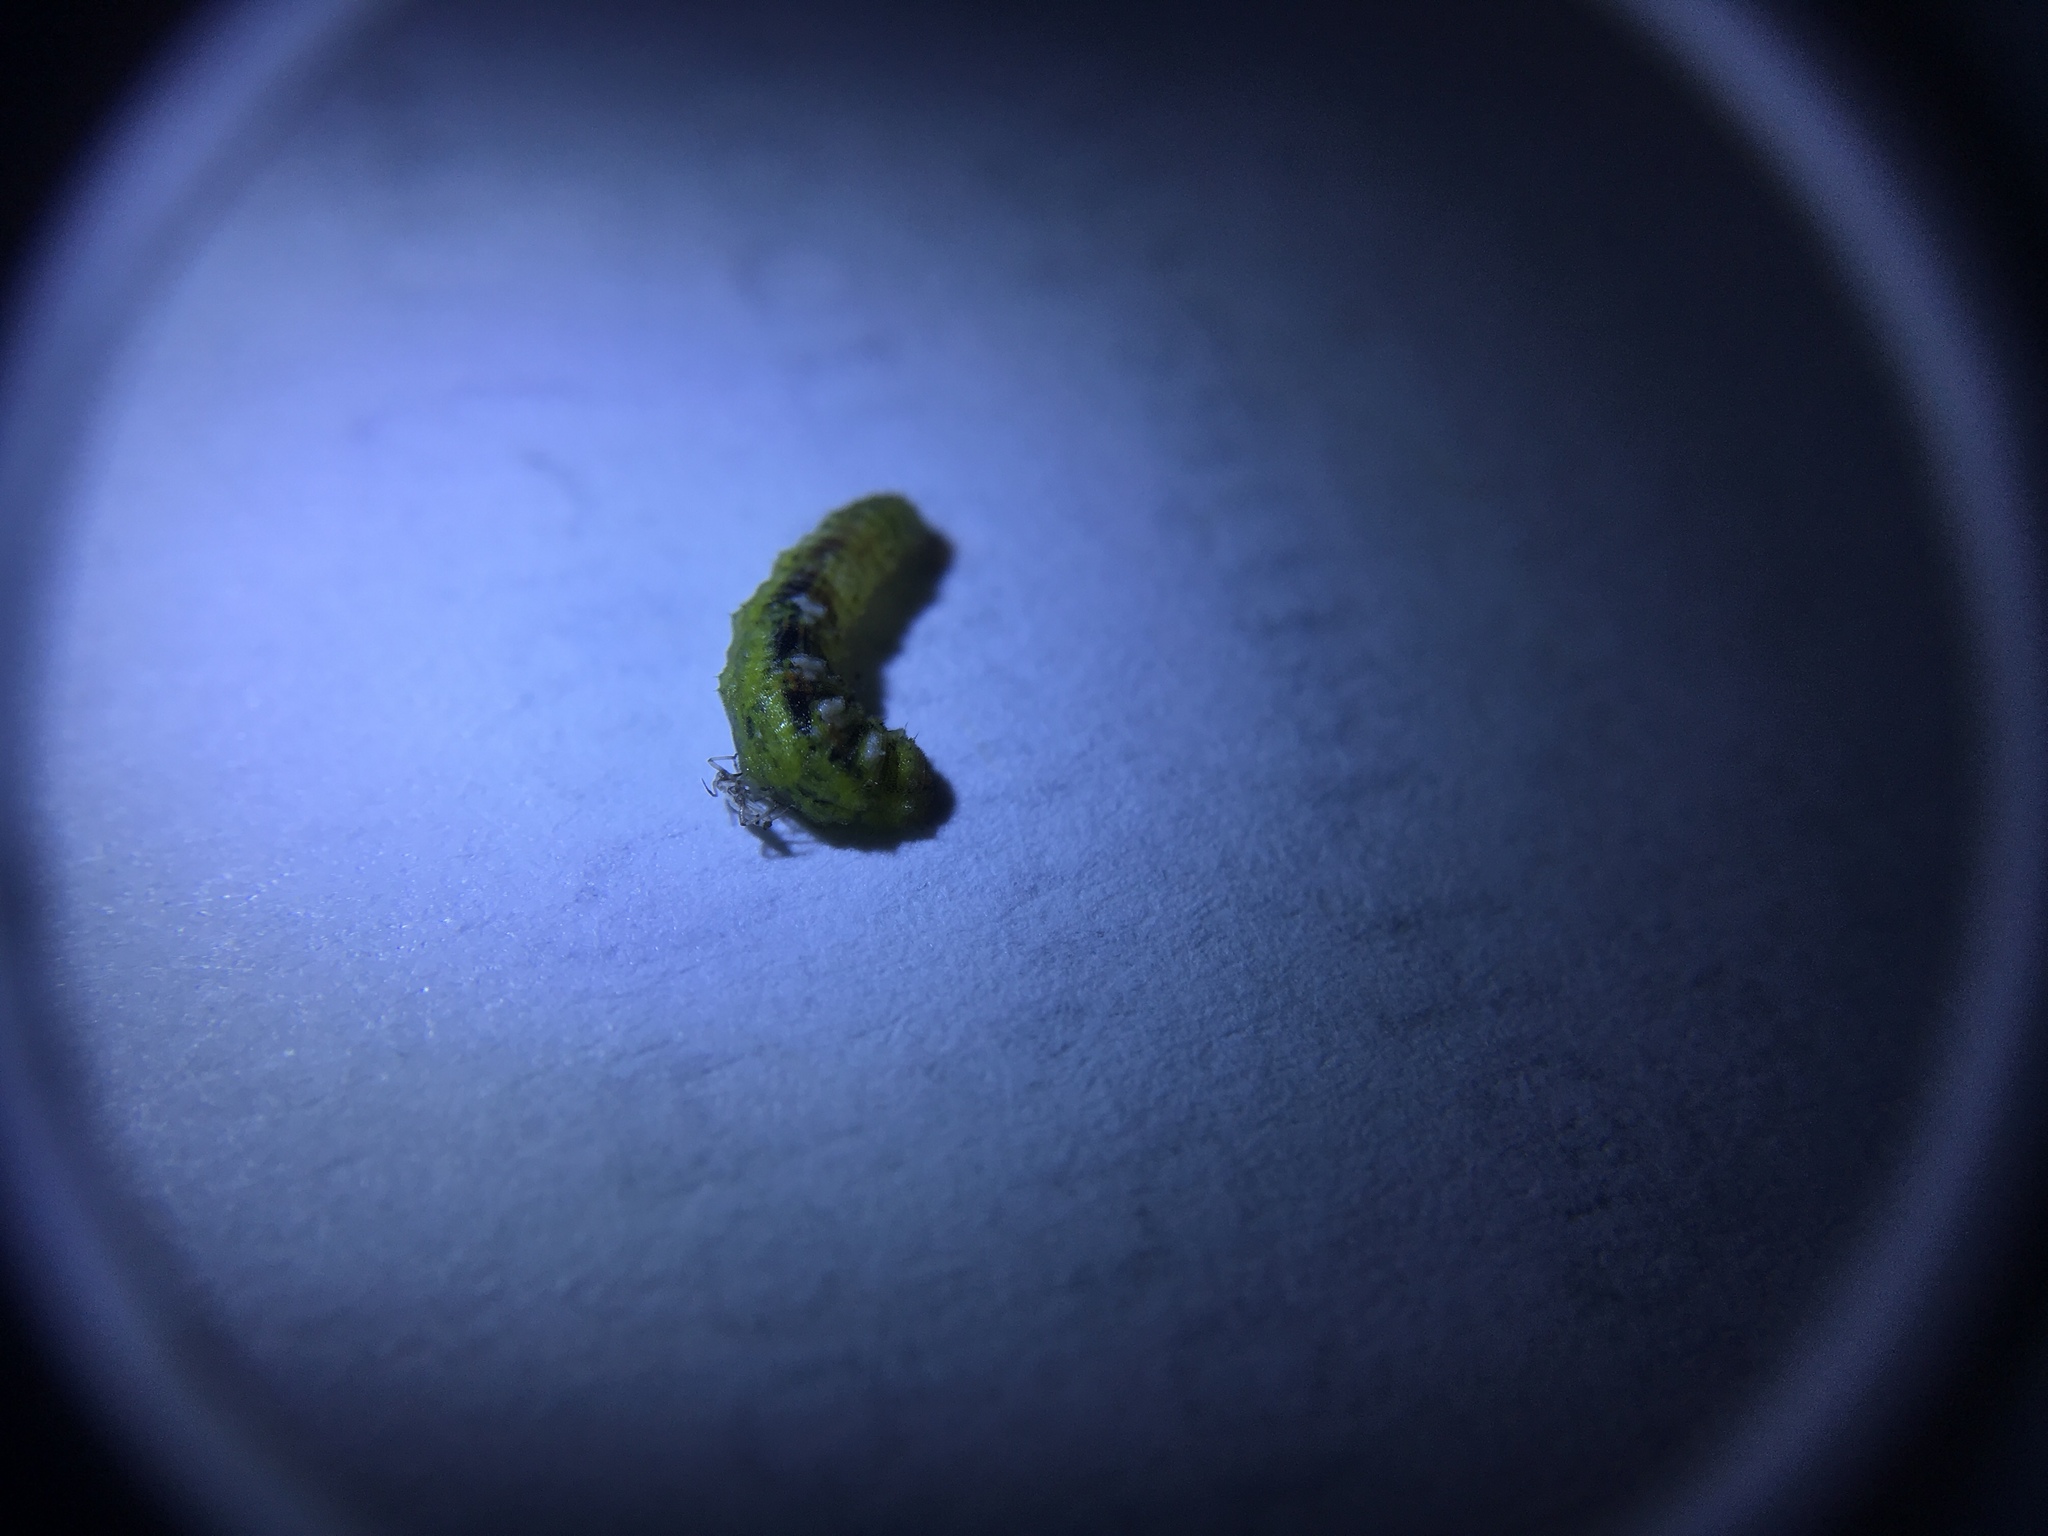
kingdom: Animalia
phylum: Arthropoda
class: Insecta
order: Diptera
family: Syrphidae
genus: Eupeodes
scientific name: Eupeodes pomus
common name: Short-tailed aphideater
